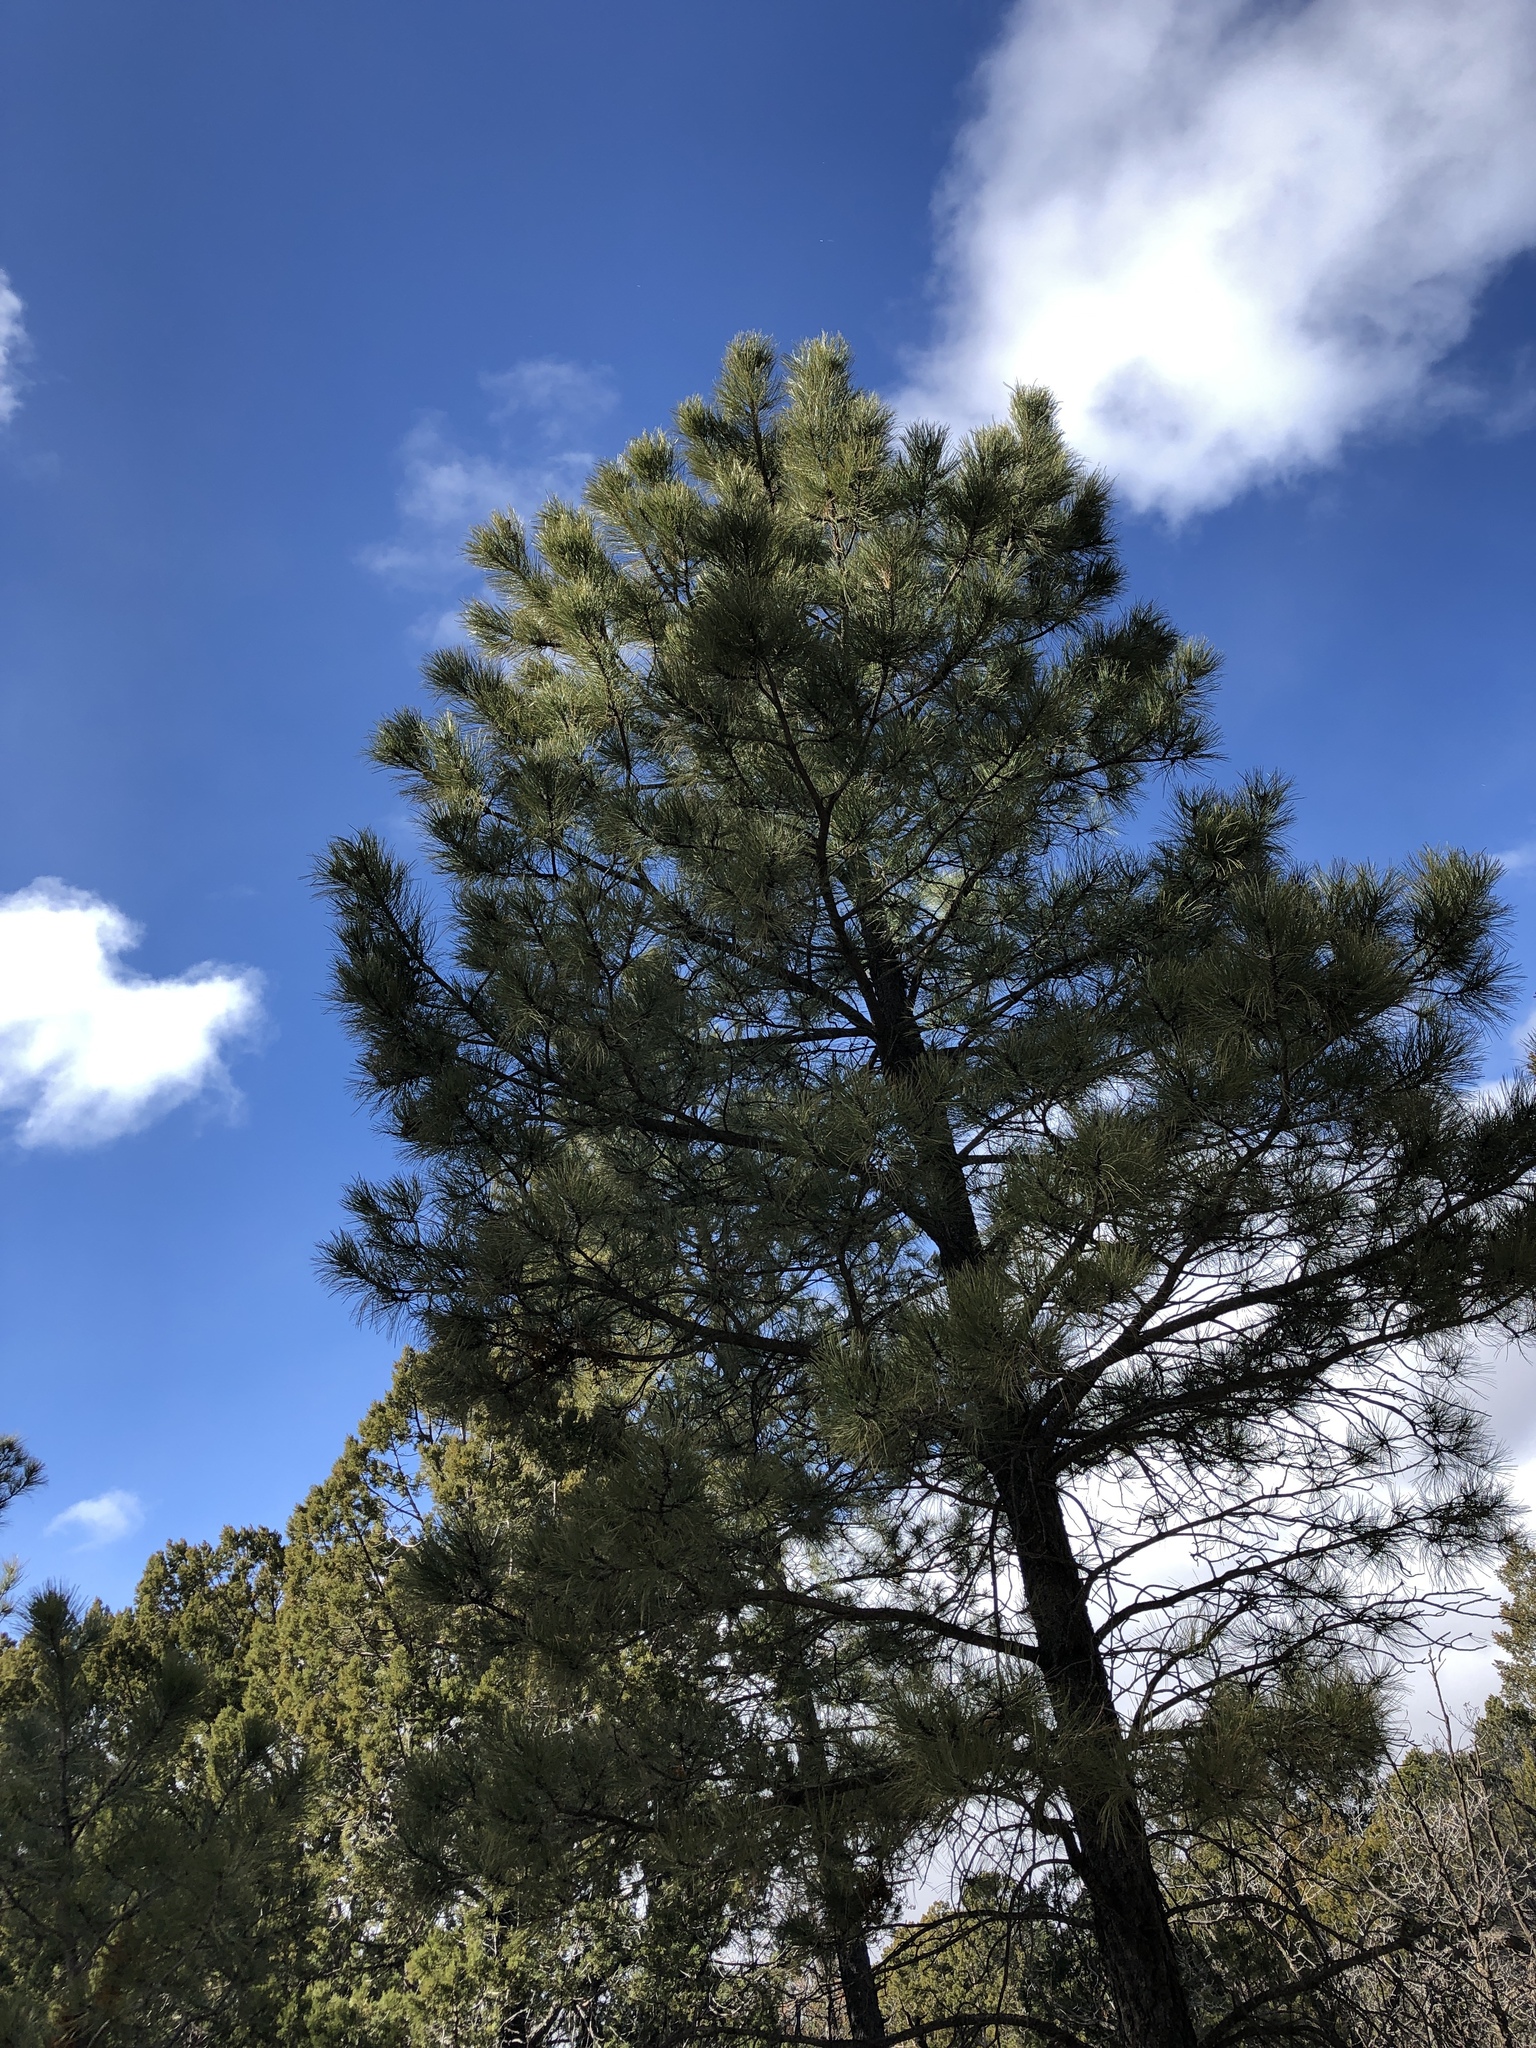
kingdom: Plantae
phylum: Tracheophyta
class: Pinopsida
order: Pinales
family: Pinaceae
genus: Pinus
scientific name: Pinus ponderosa
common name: Western yellow-pine
